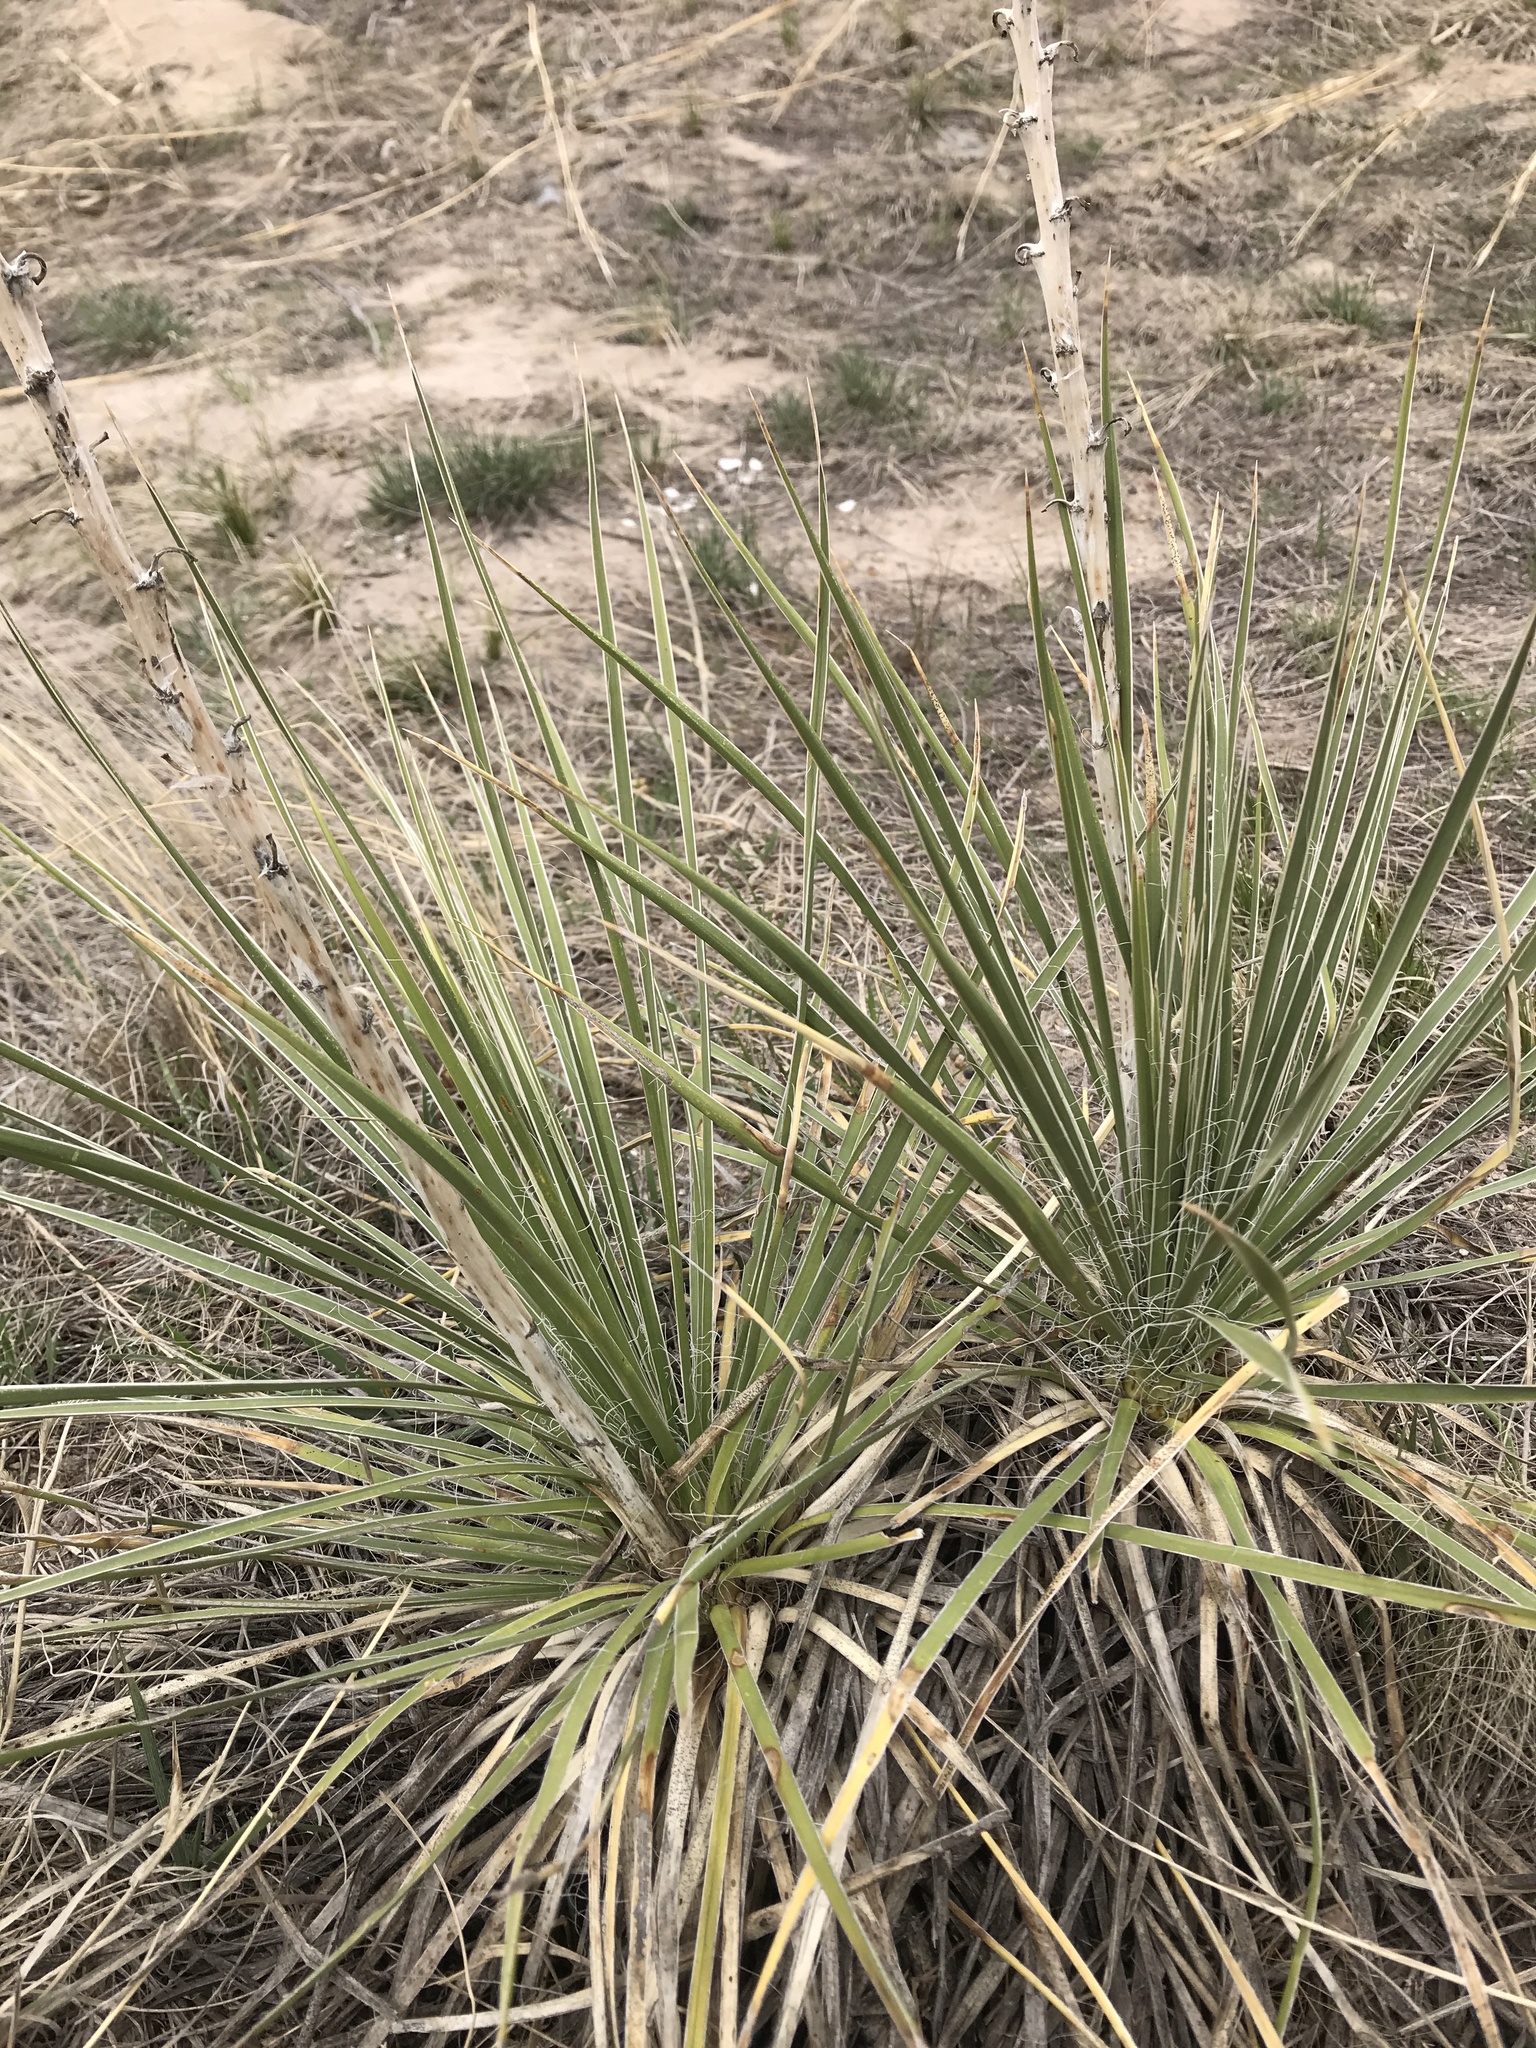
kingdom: Plantae
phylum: Tracheophyta
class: Liliopsida
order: Asparagales
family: Asparagaceae
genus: Yucca
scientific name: Yucca glauca
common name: Great plains yucca
